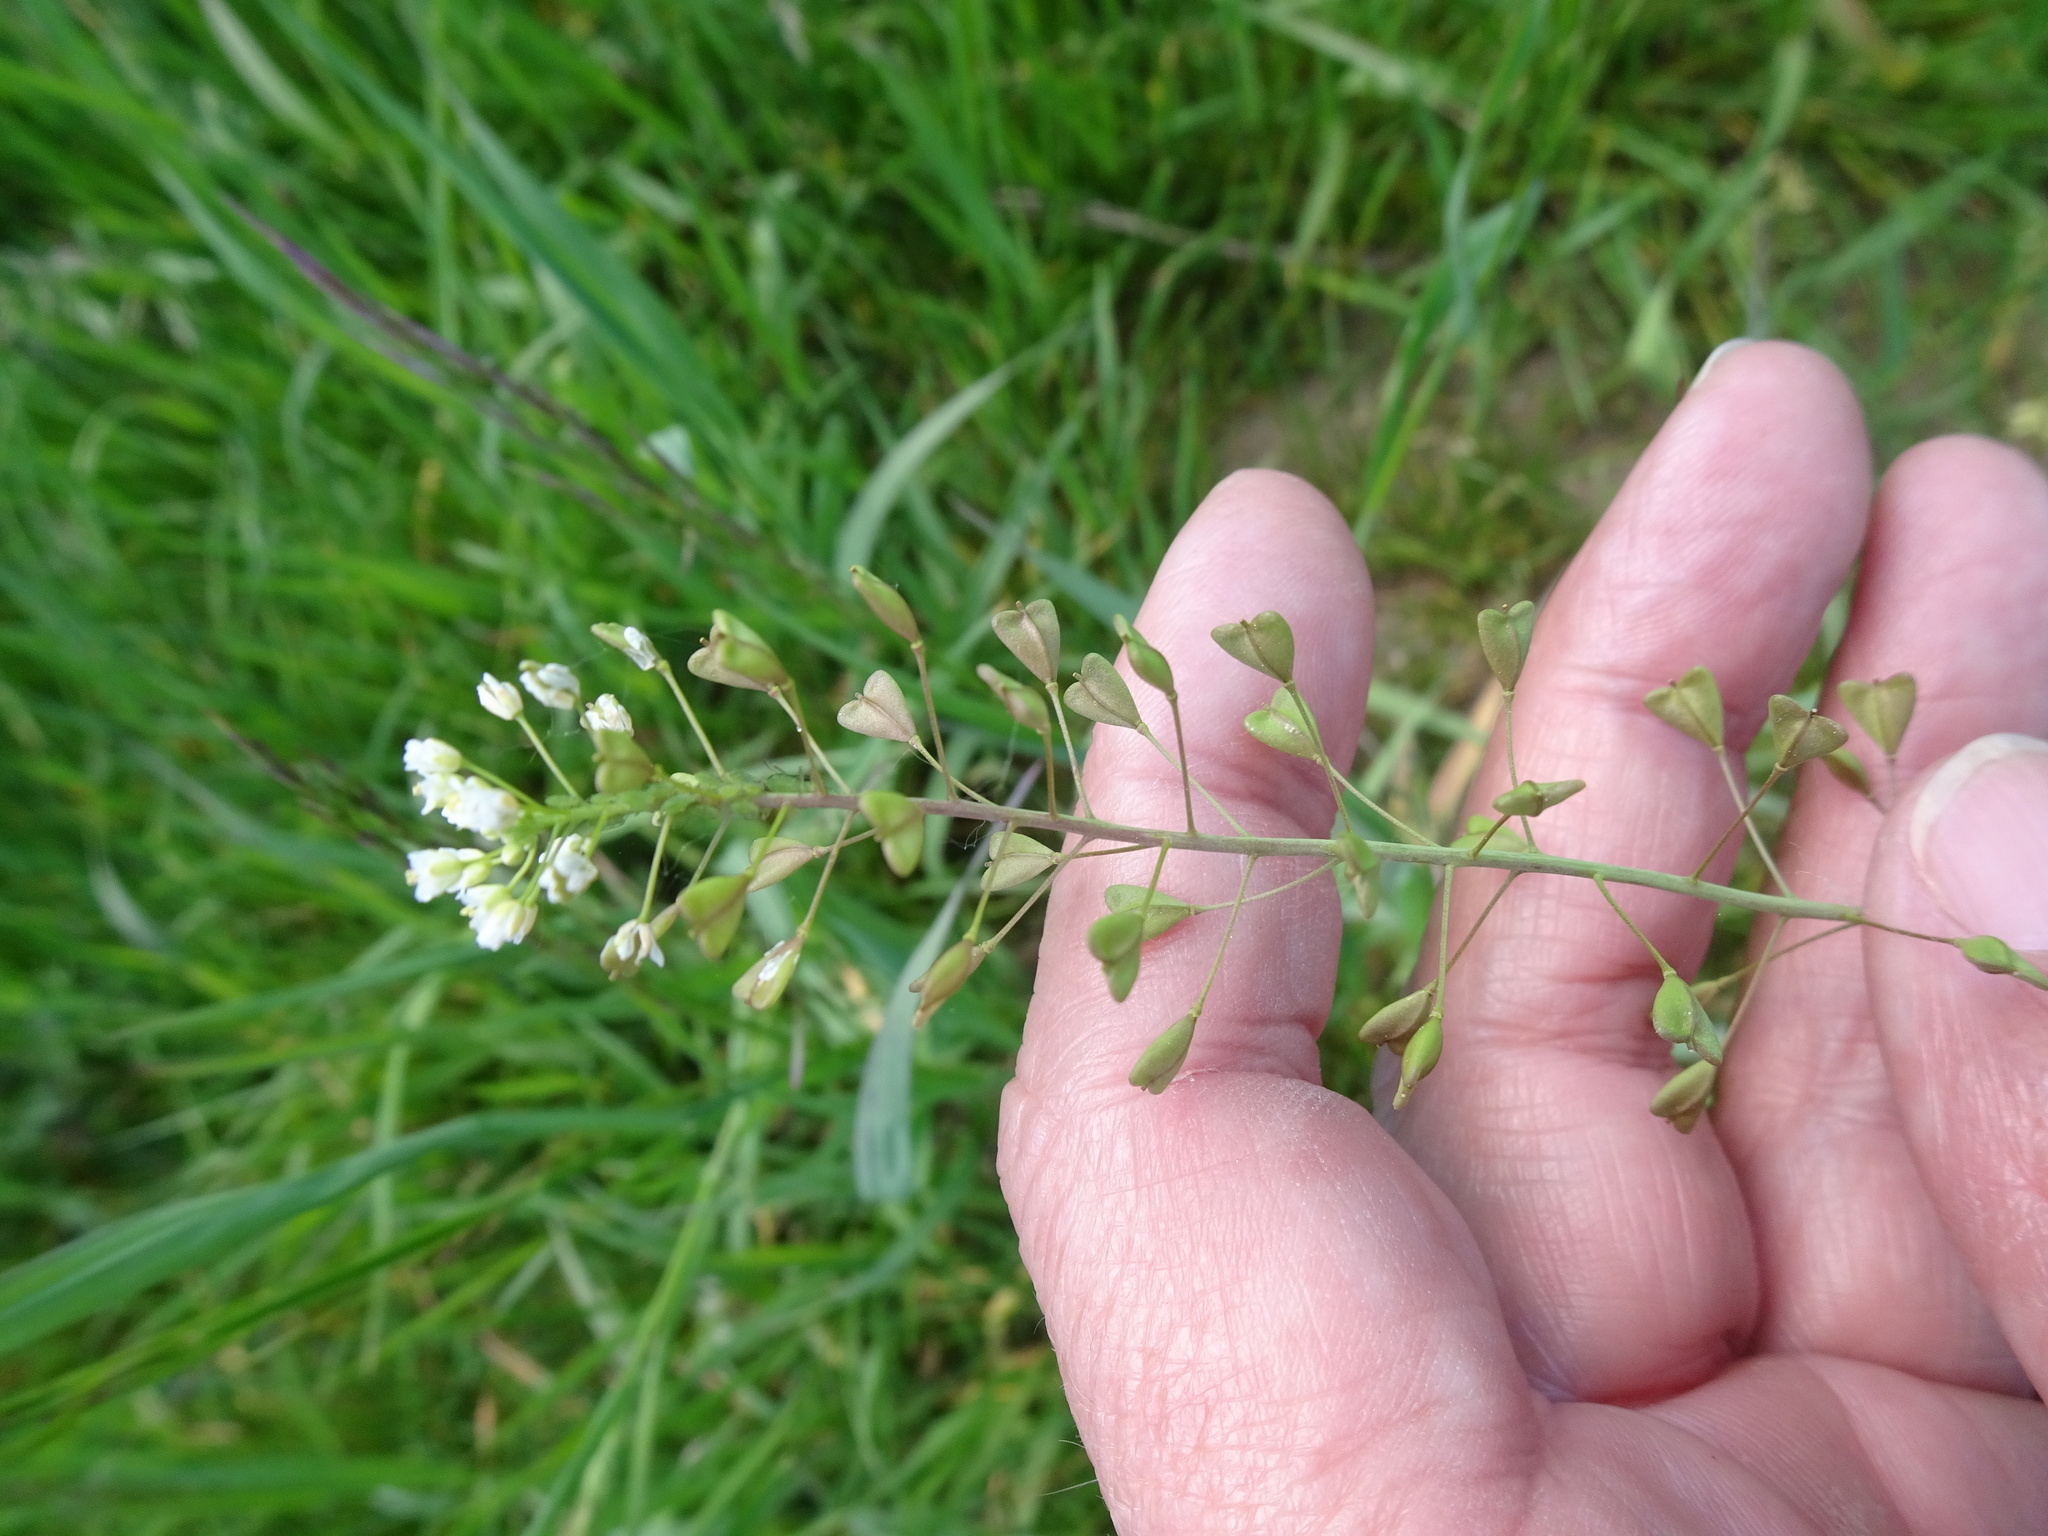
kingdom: Plantae
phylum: Tracheophyta
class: Magnoliopsida
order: Brassicales
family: Brassicaceae
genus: Capsella
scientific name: Capsella bursa-pastoris
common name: Shepherd's purse
